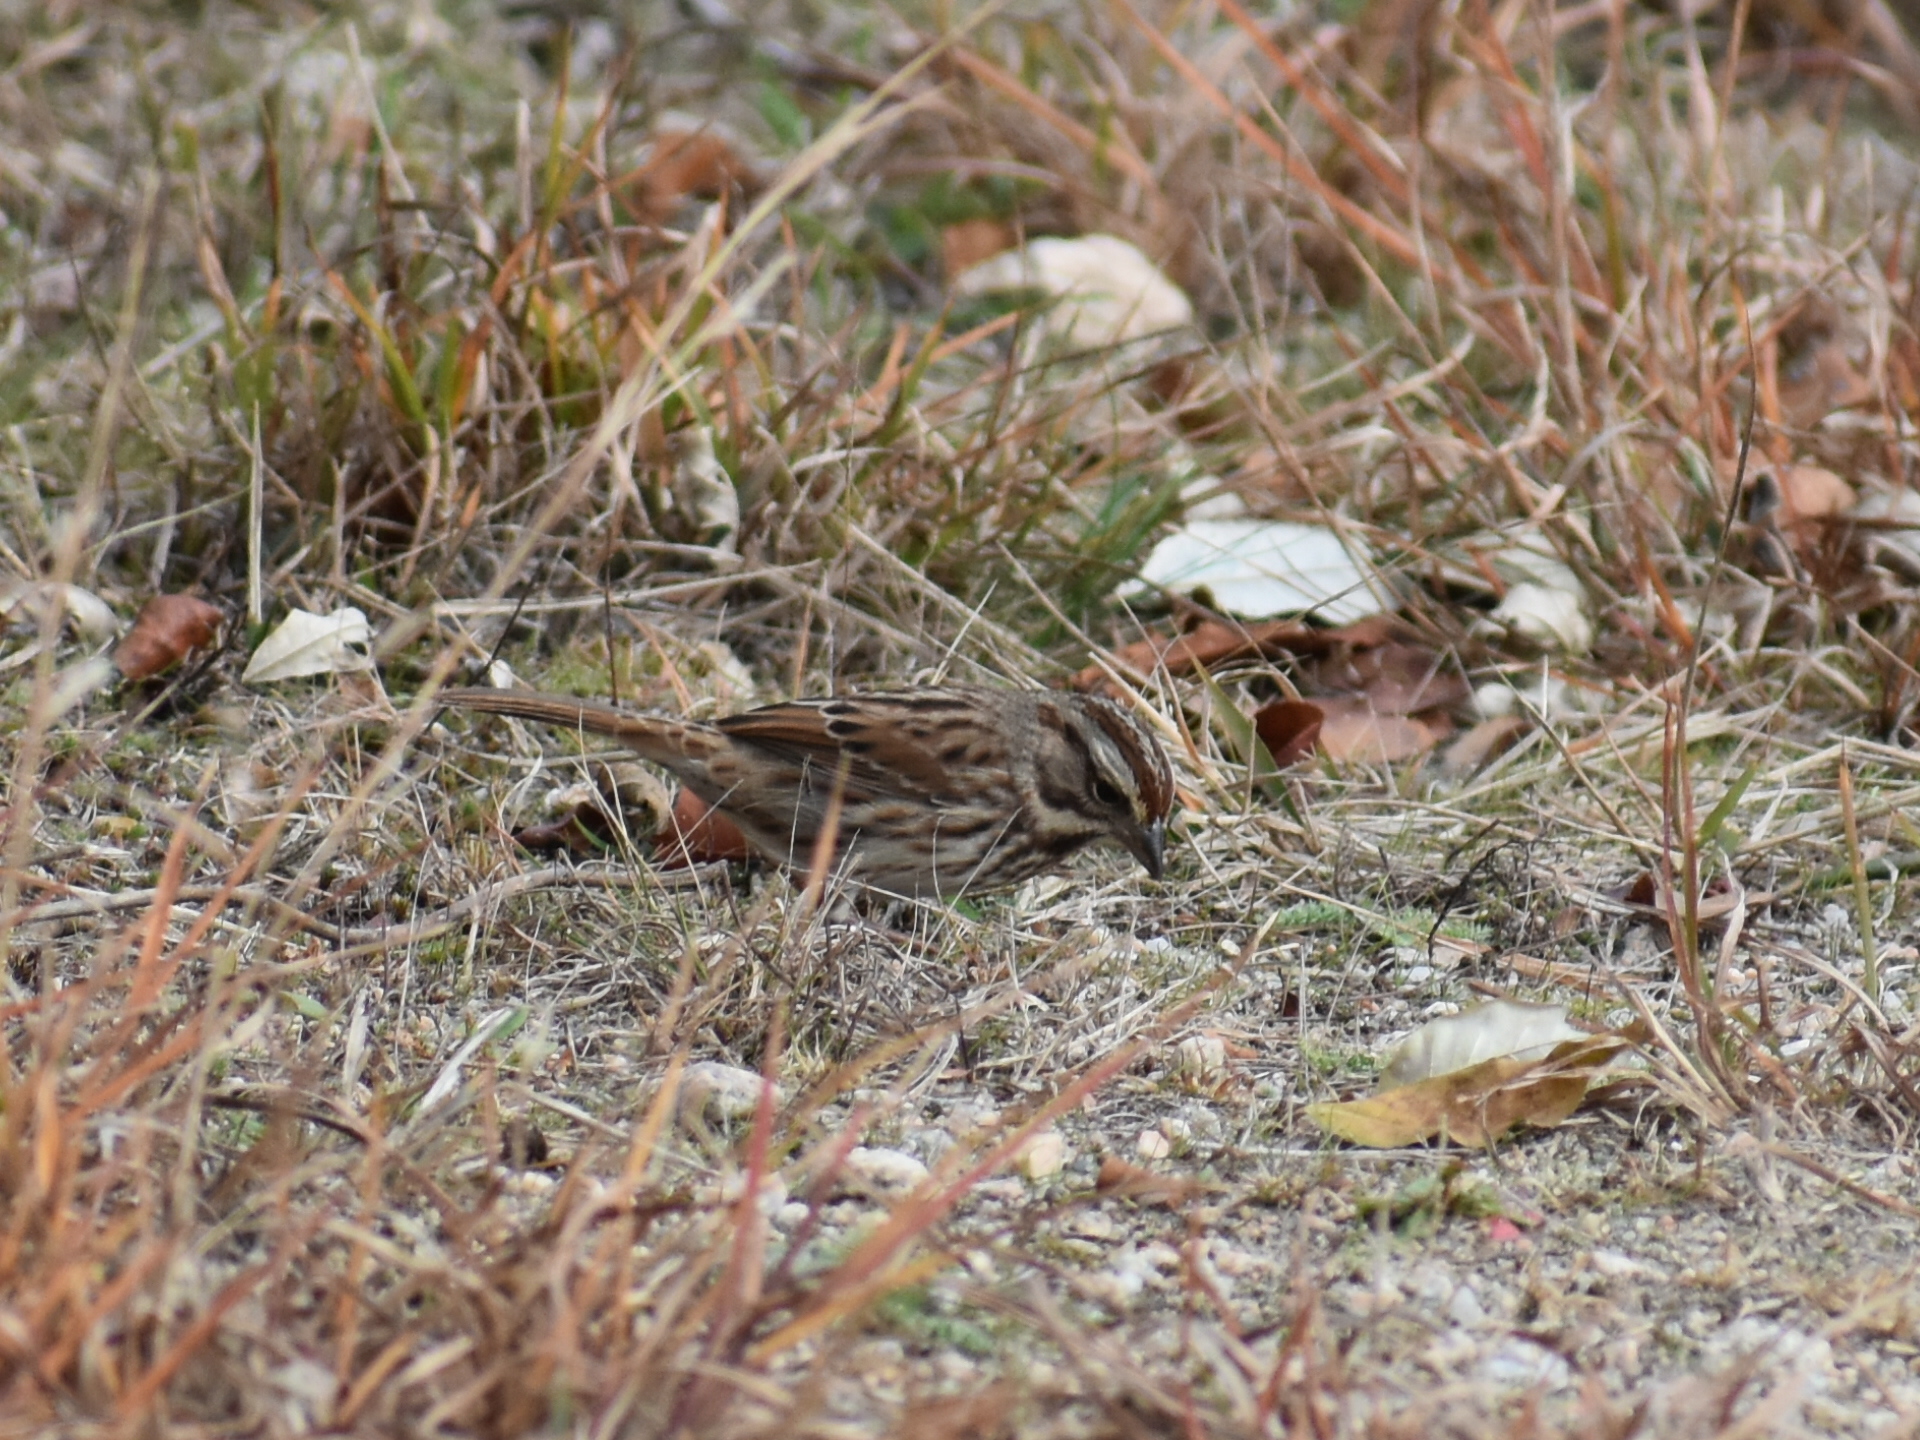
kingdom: Animalia
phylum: Chordata
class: Aves
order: Passeriformes
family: Passerellidae
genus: Melospiza
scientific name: Melospiza melodia
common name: Song sparrow
